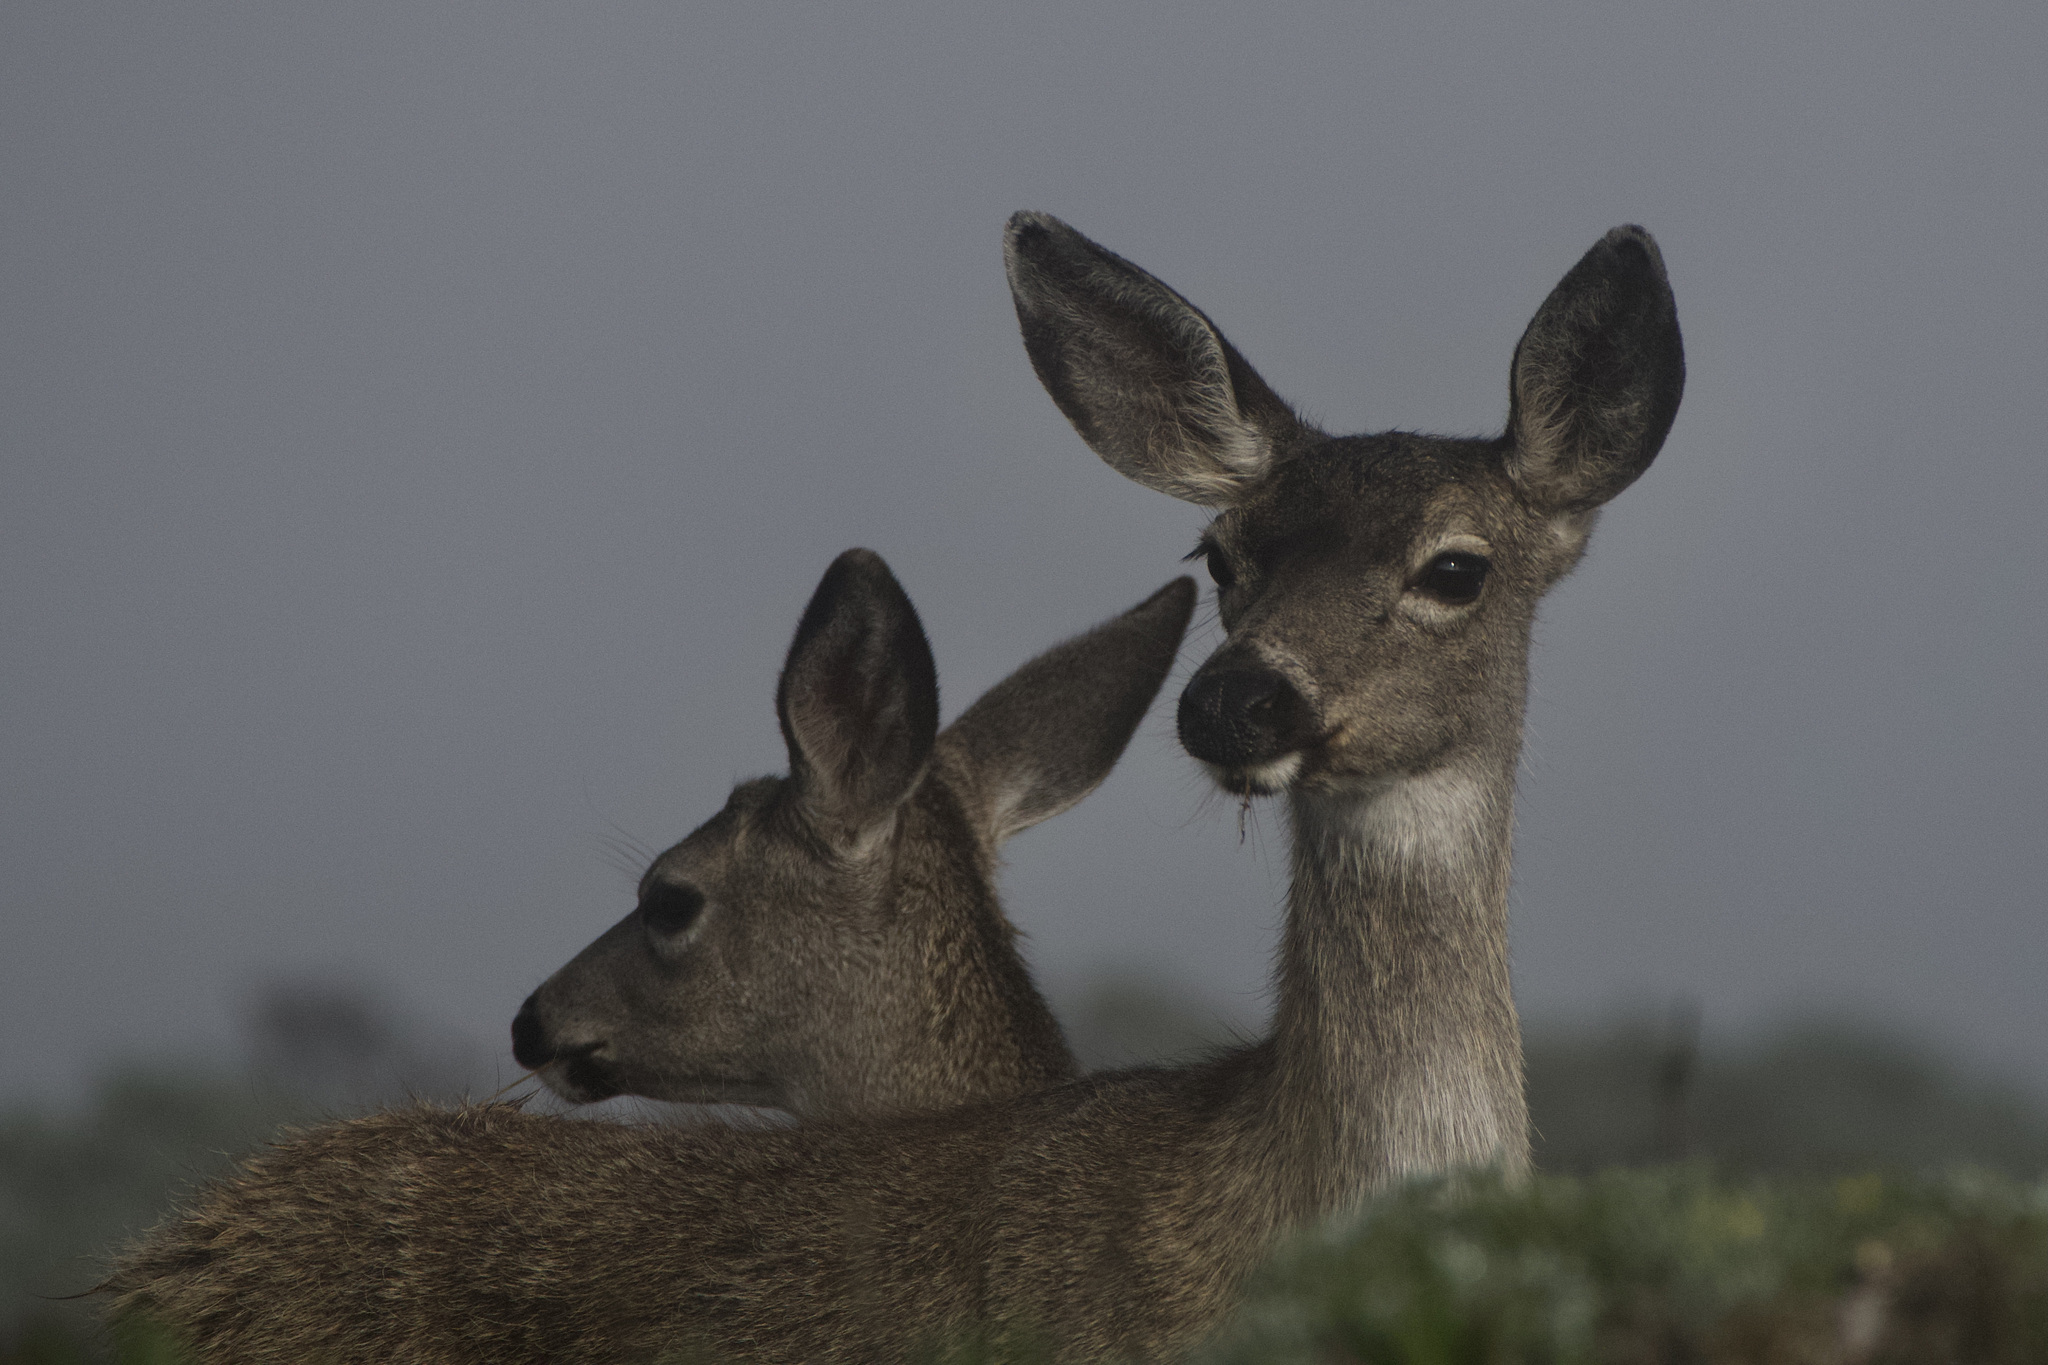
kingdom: Animalia
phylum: Chordata
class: Mammalia
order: Artiodactyla
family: Cervidae
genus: Odocoileus
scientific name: Odocoileus hemionus
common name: Mule deer
